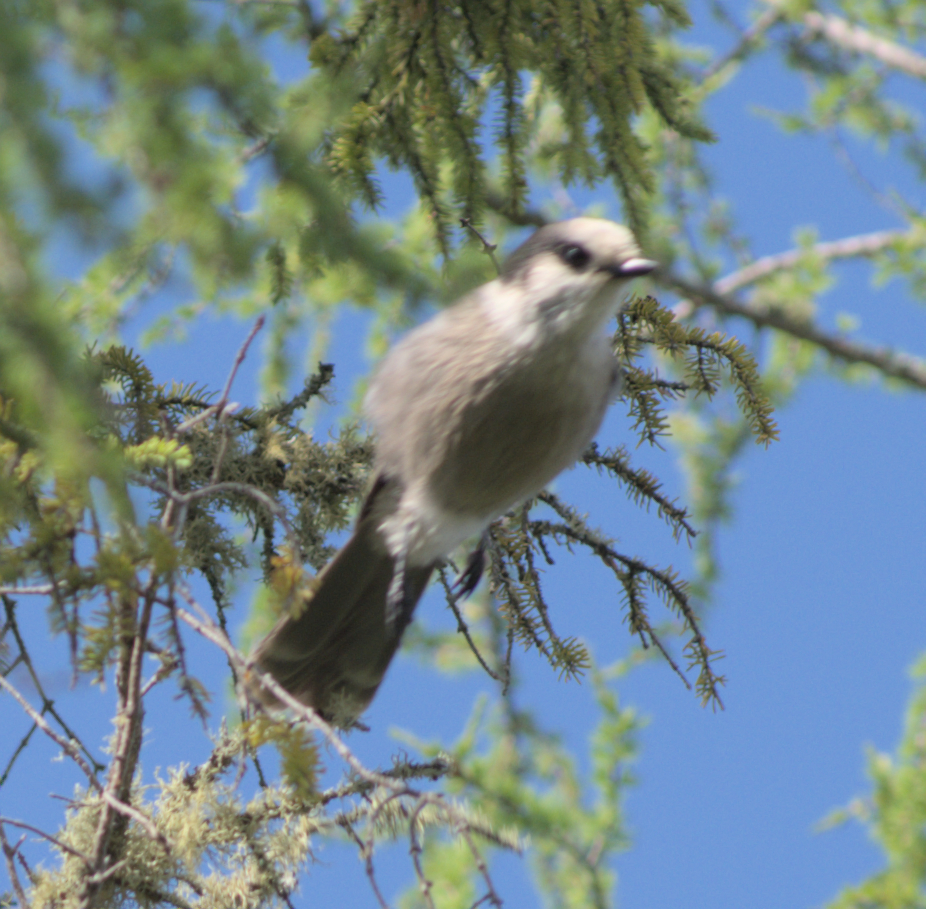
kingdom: Animalia
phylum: Chordata
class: Aves
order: Passeriformes
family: Corvidae
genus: Perisoreus
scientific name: Perisoreus canadensis
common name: Gray jay
